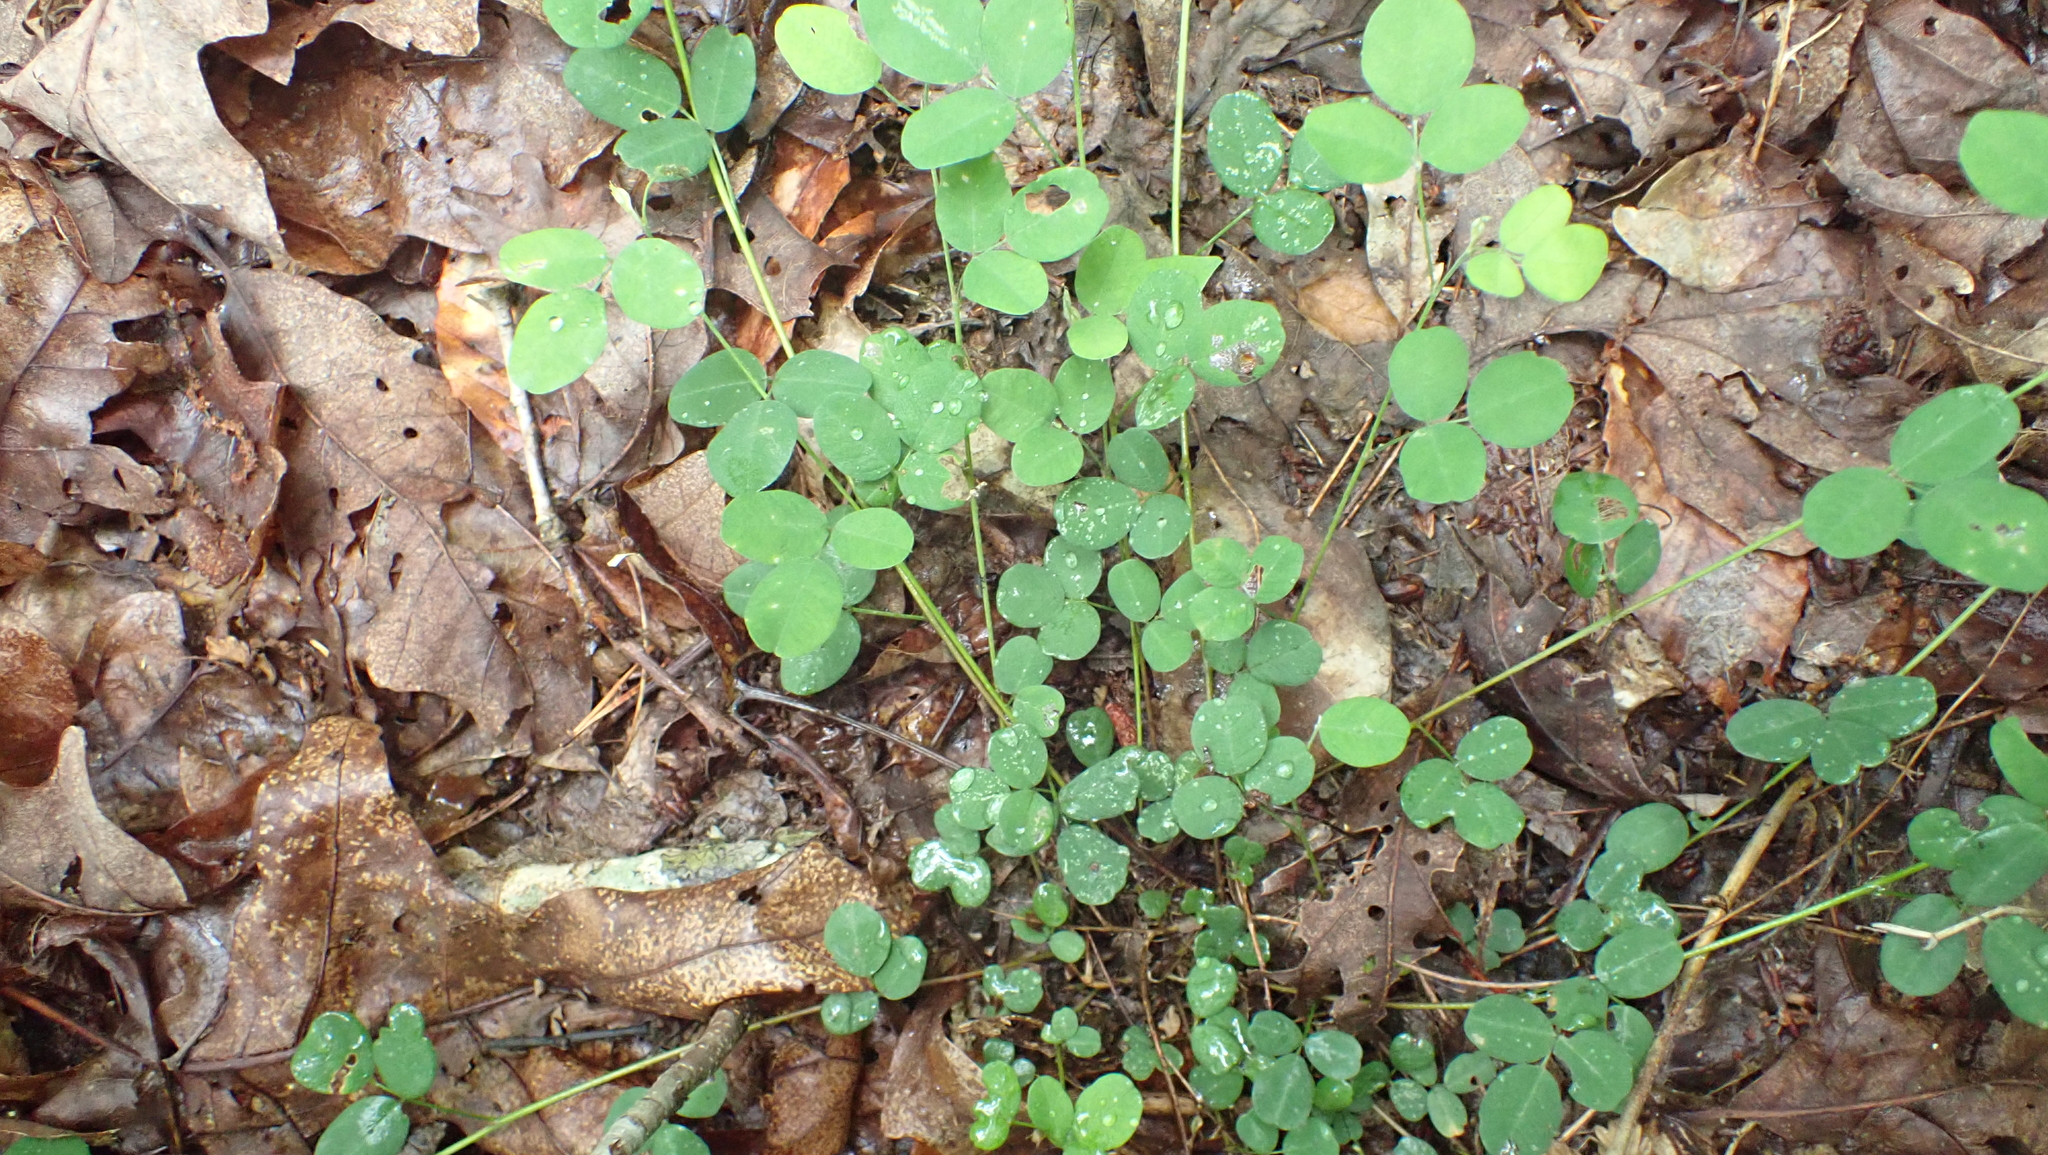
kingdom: Plantae
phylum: Tracheophyta
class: Magnoliopsida
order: Fabales
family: Fabaceae
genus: Lespedeza
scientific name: Lespedeza repens
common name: Creeping bush-clover
